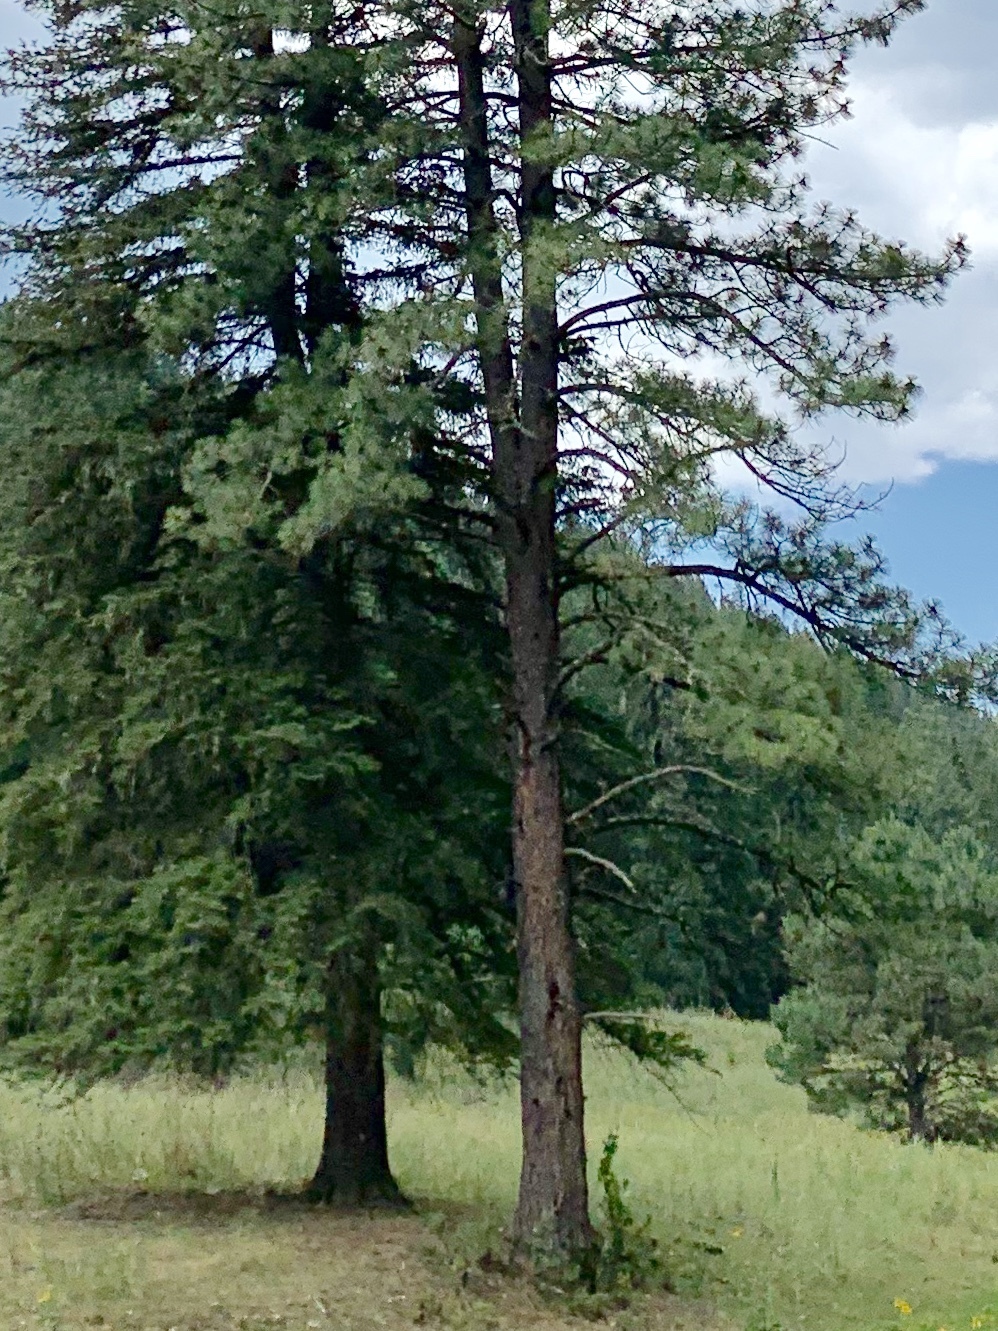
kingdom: Plantae
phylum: Tracheophyta
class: Pinopsida
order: Pinales
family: Pinaceae
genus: Pinus
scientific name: Pinus ponderosa
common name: Western yellow-pine
